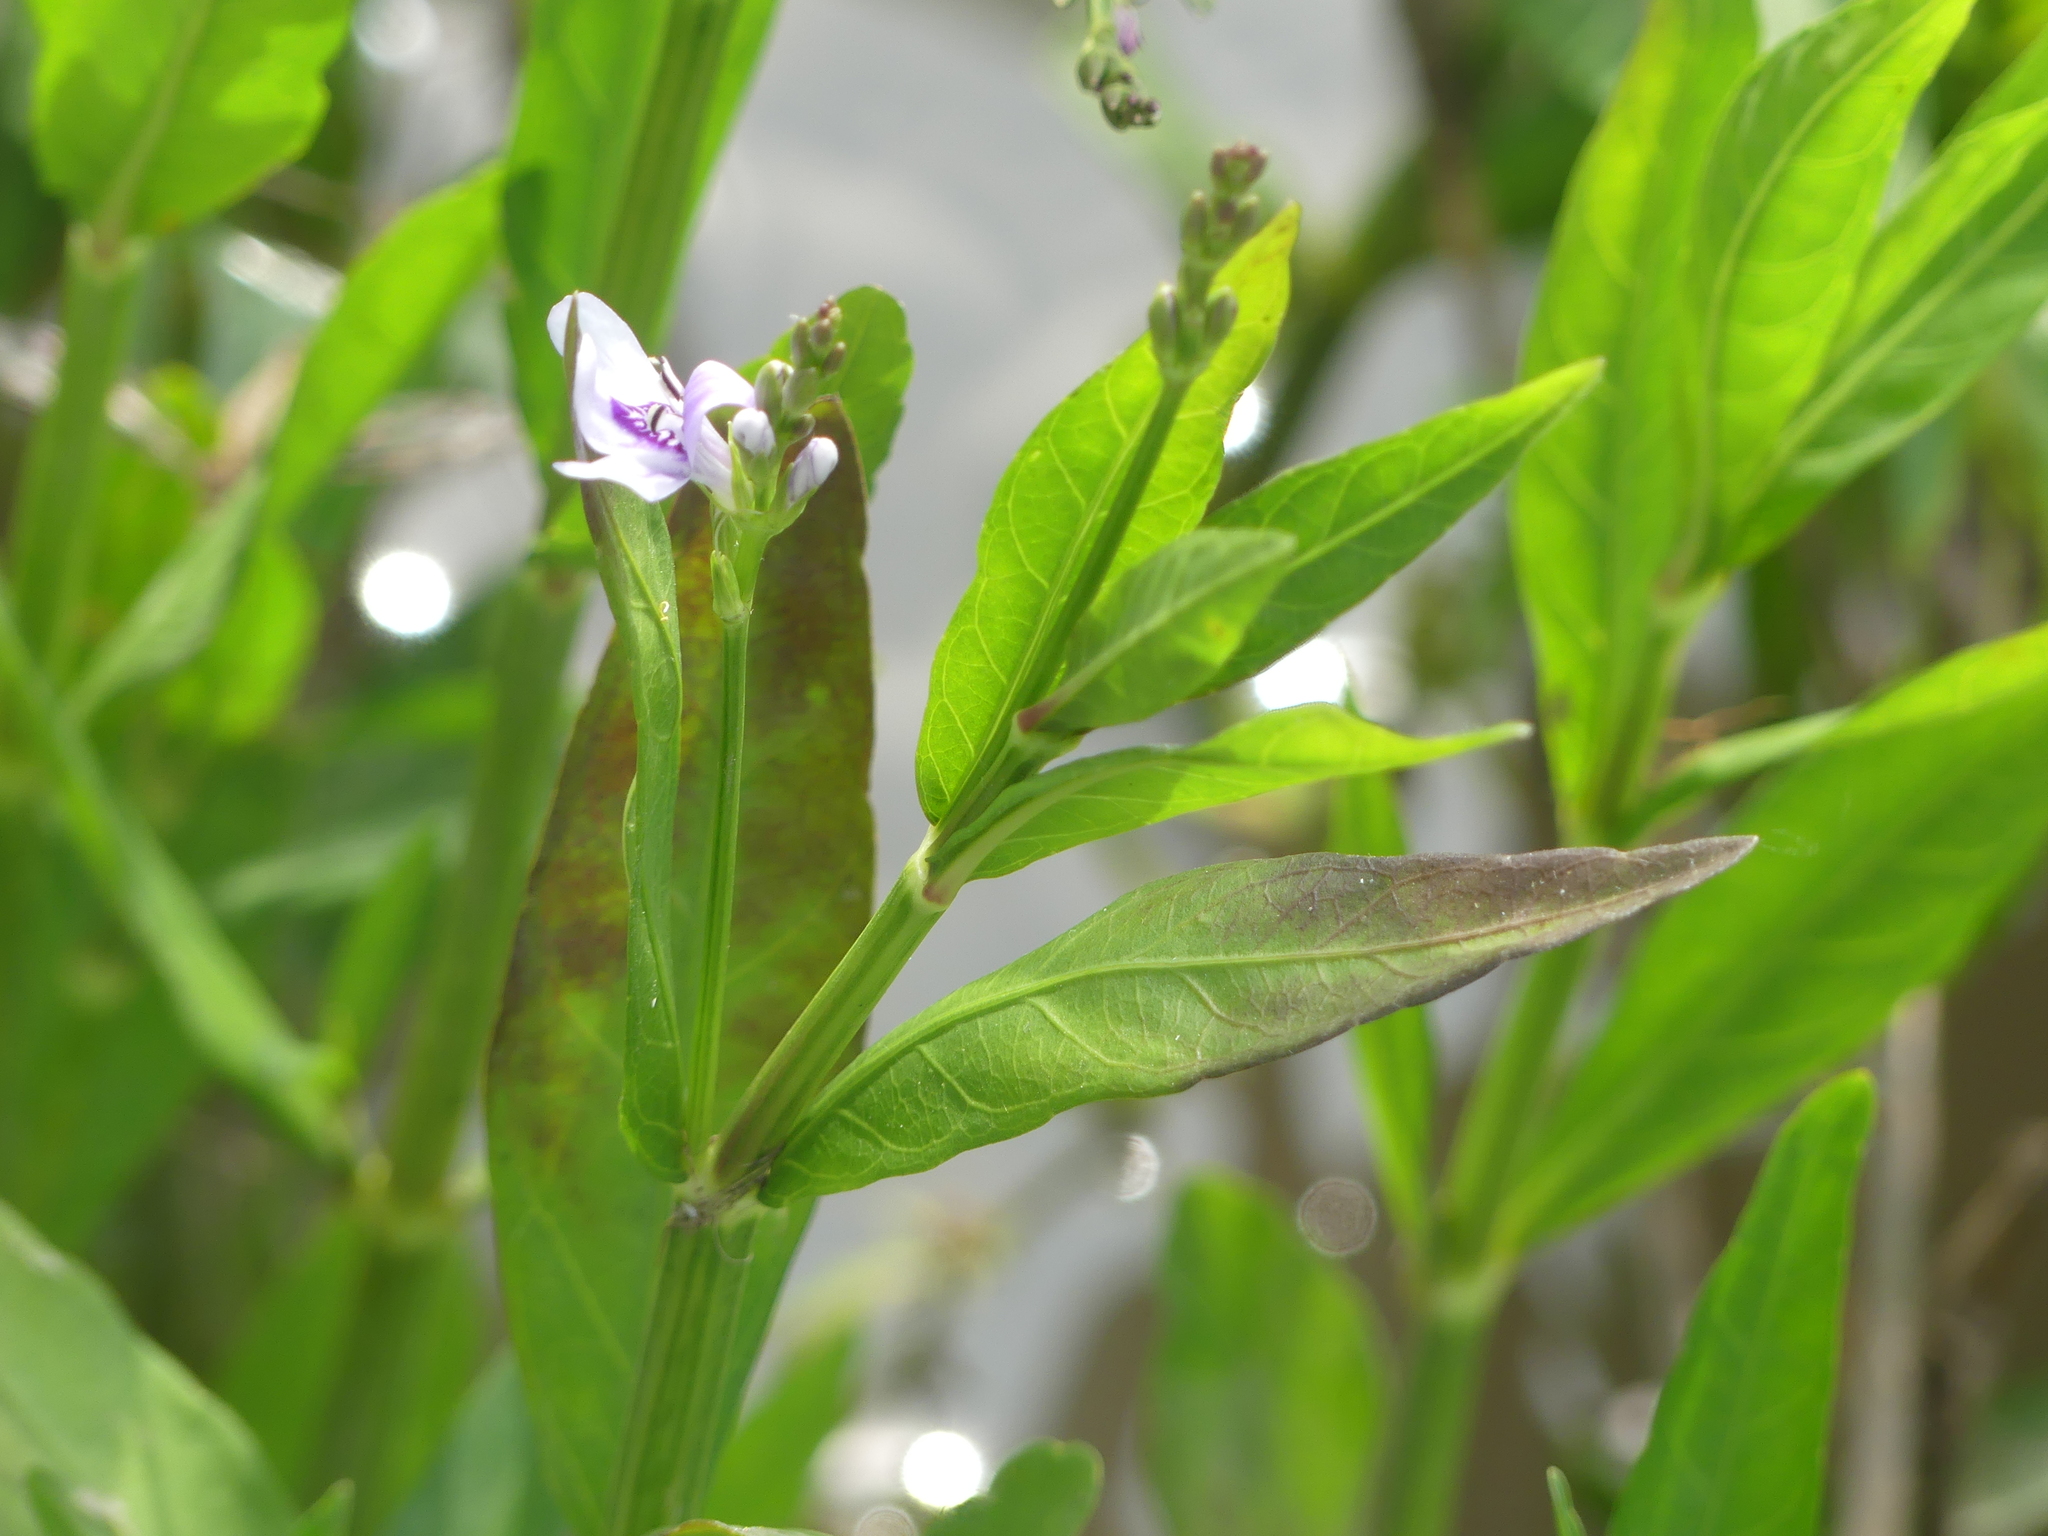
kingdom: Plantae
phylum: Tracheophyta
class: Magnoliopsida
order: Lamiales
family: Acanthaceae
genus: Dianthera
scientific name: Dianthera americana
